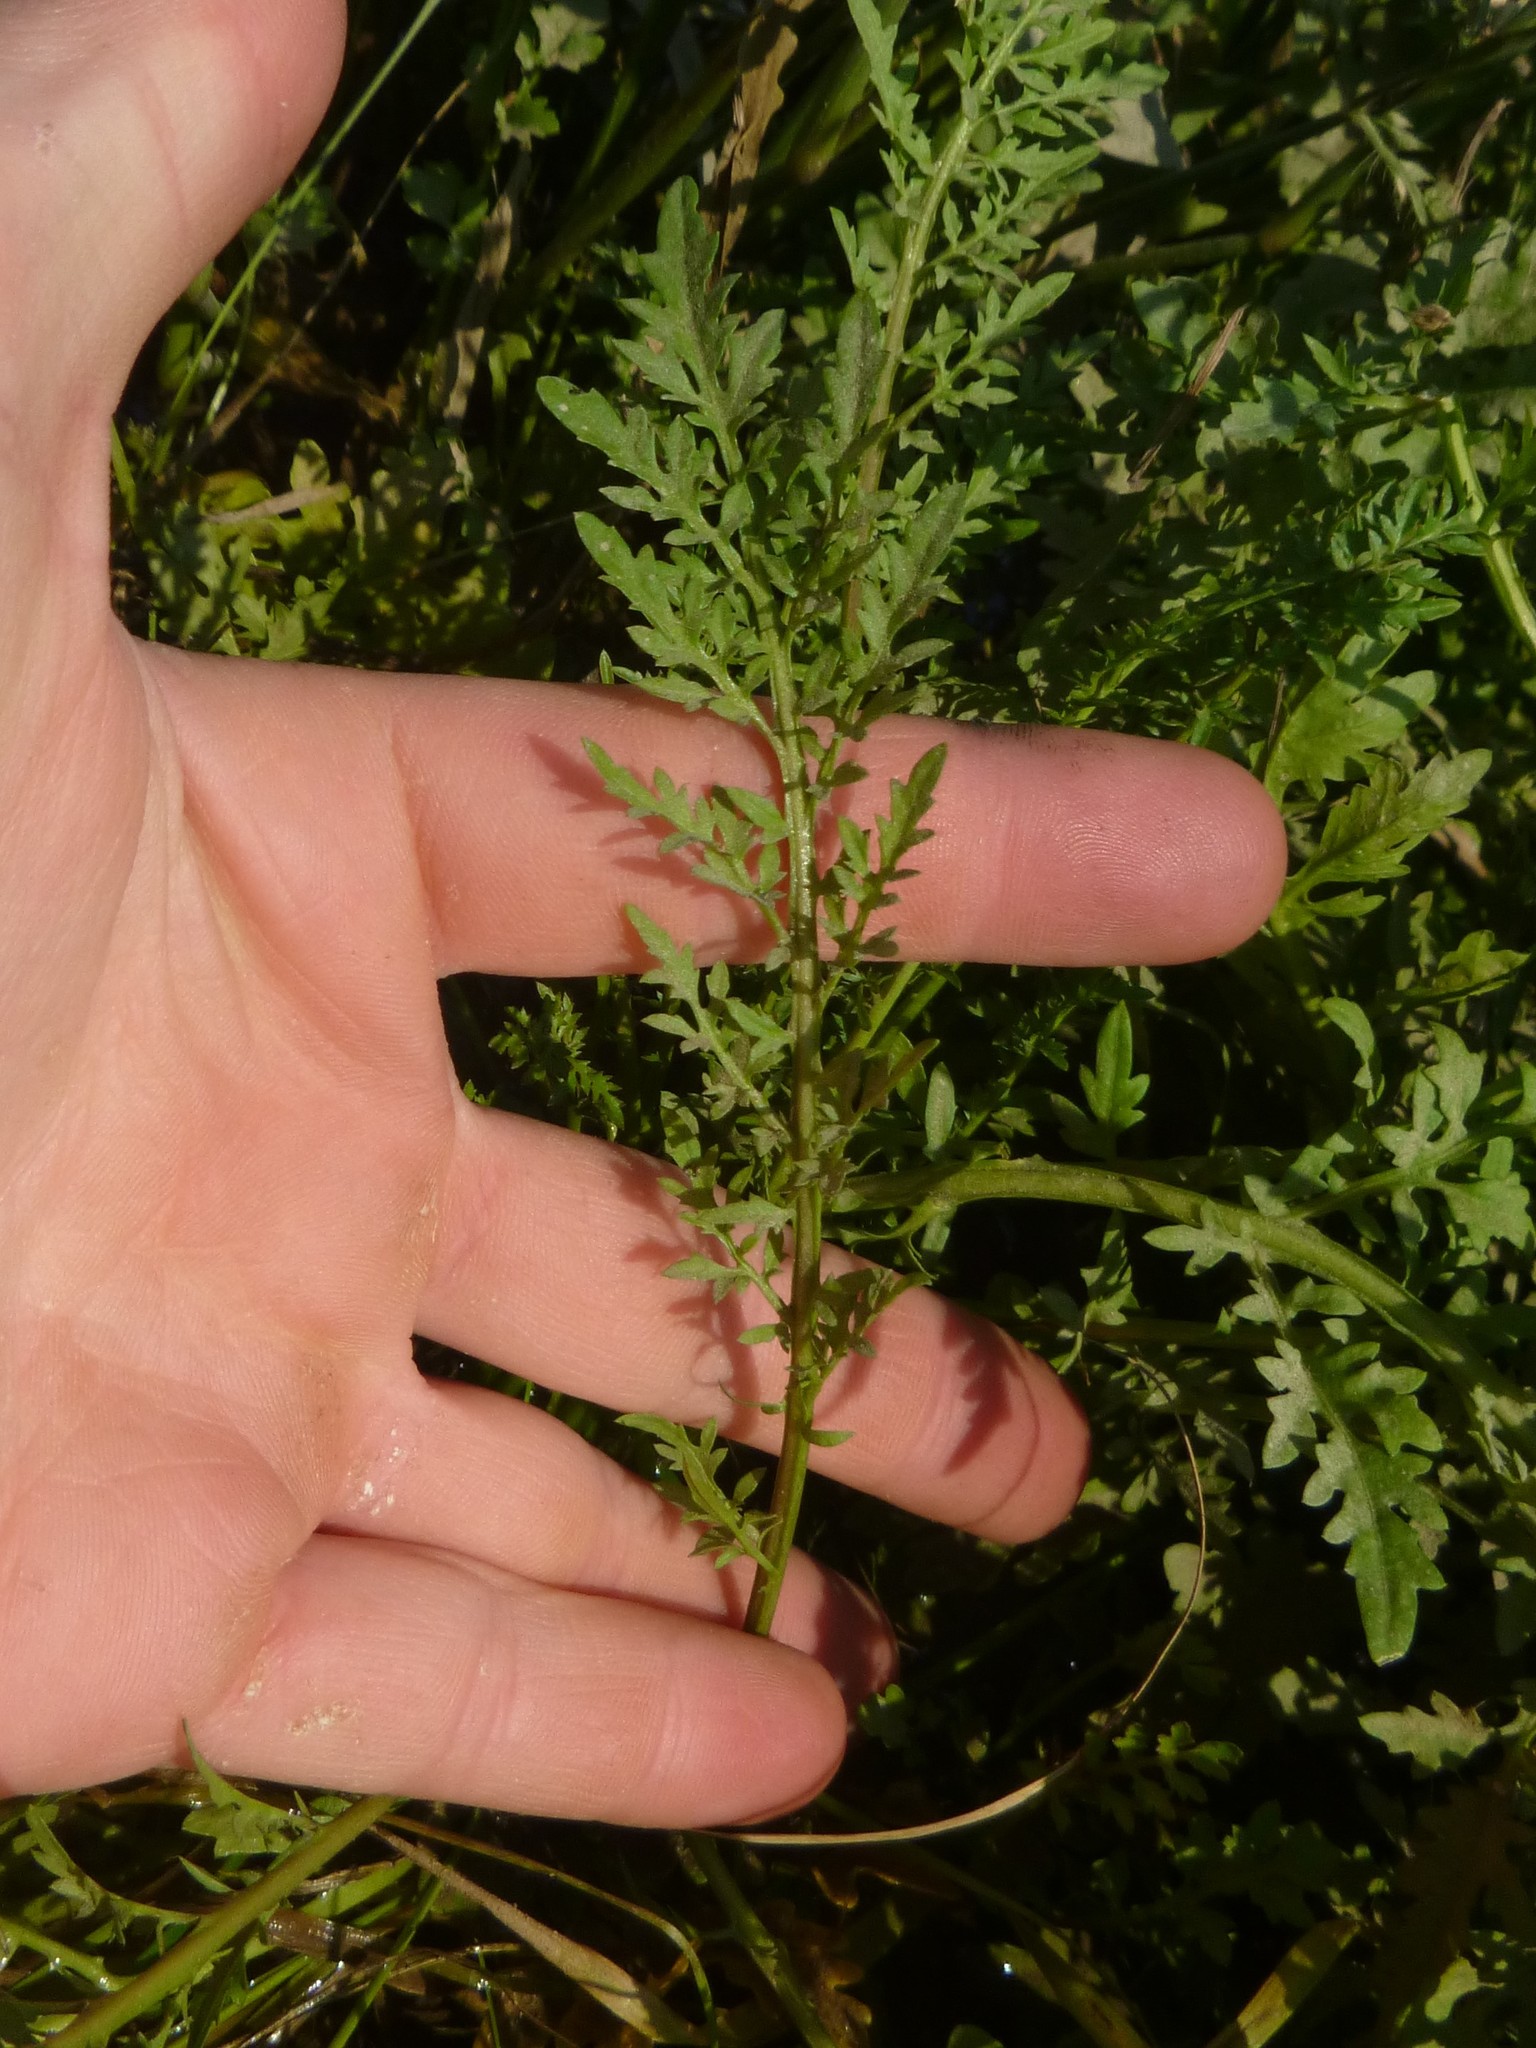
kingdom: Plantae
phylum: Tracheophyta
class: Magnoliopsida
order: Brassicales
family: Brassicaceae
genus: Rorippa
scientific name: Rorippa sylvestris
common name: Creeping yellowcress
